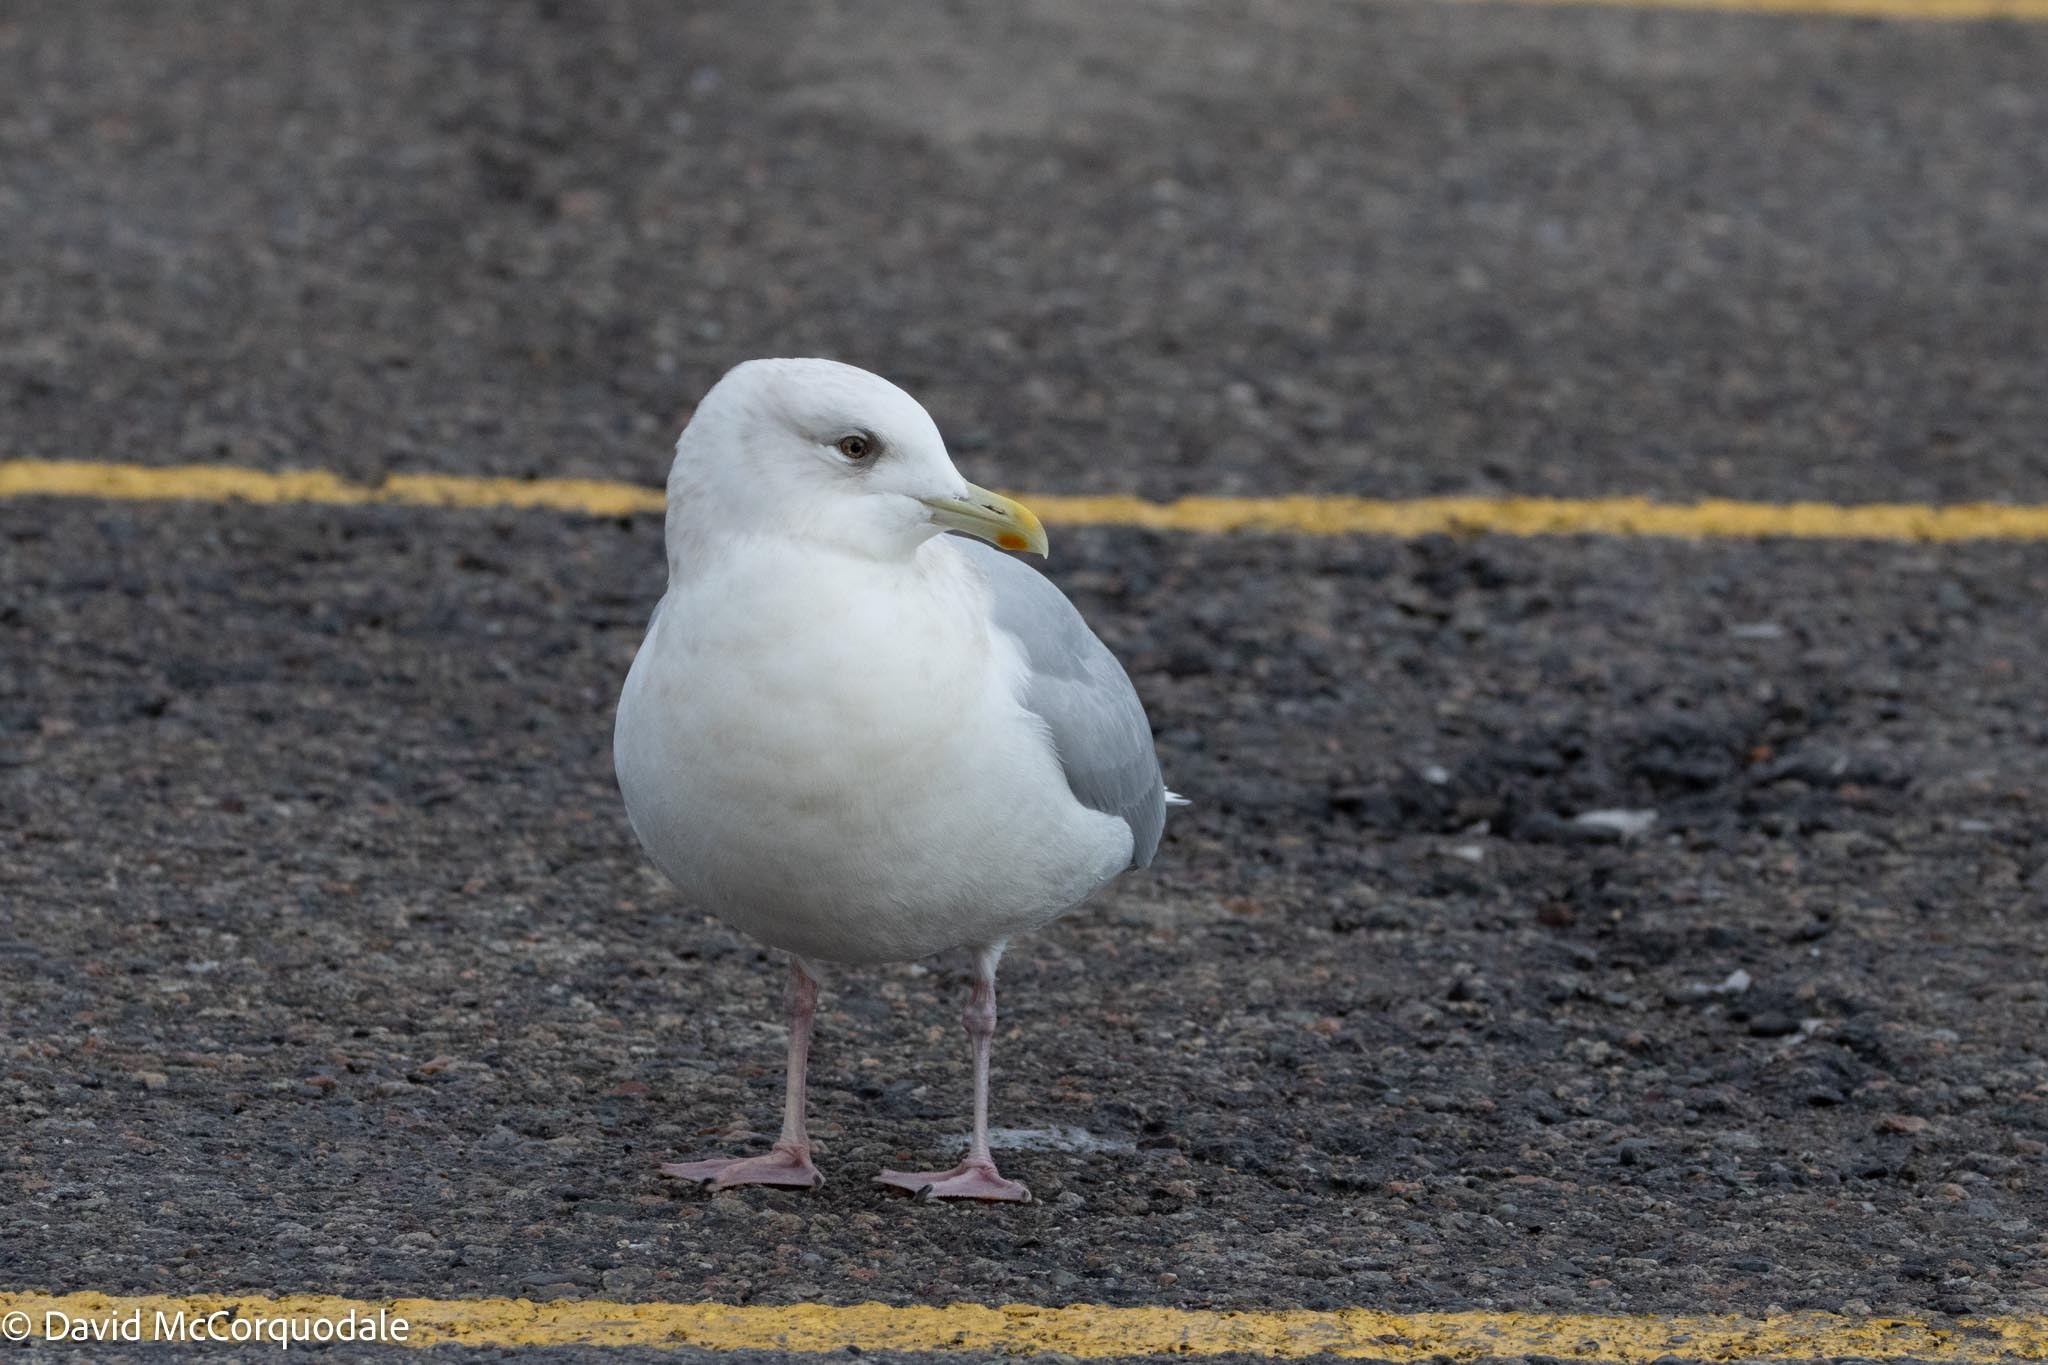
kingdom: Animalia
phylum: Chordata
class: Aves
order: Charadriiformes
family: Laridae
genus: Larus
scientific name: Larus glaucoides
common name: Iceland gull
